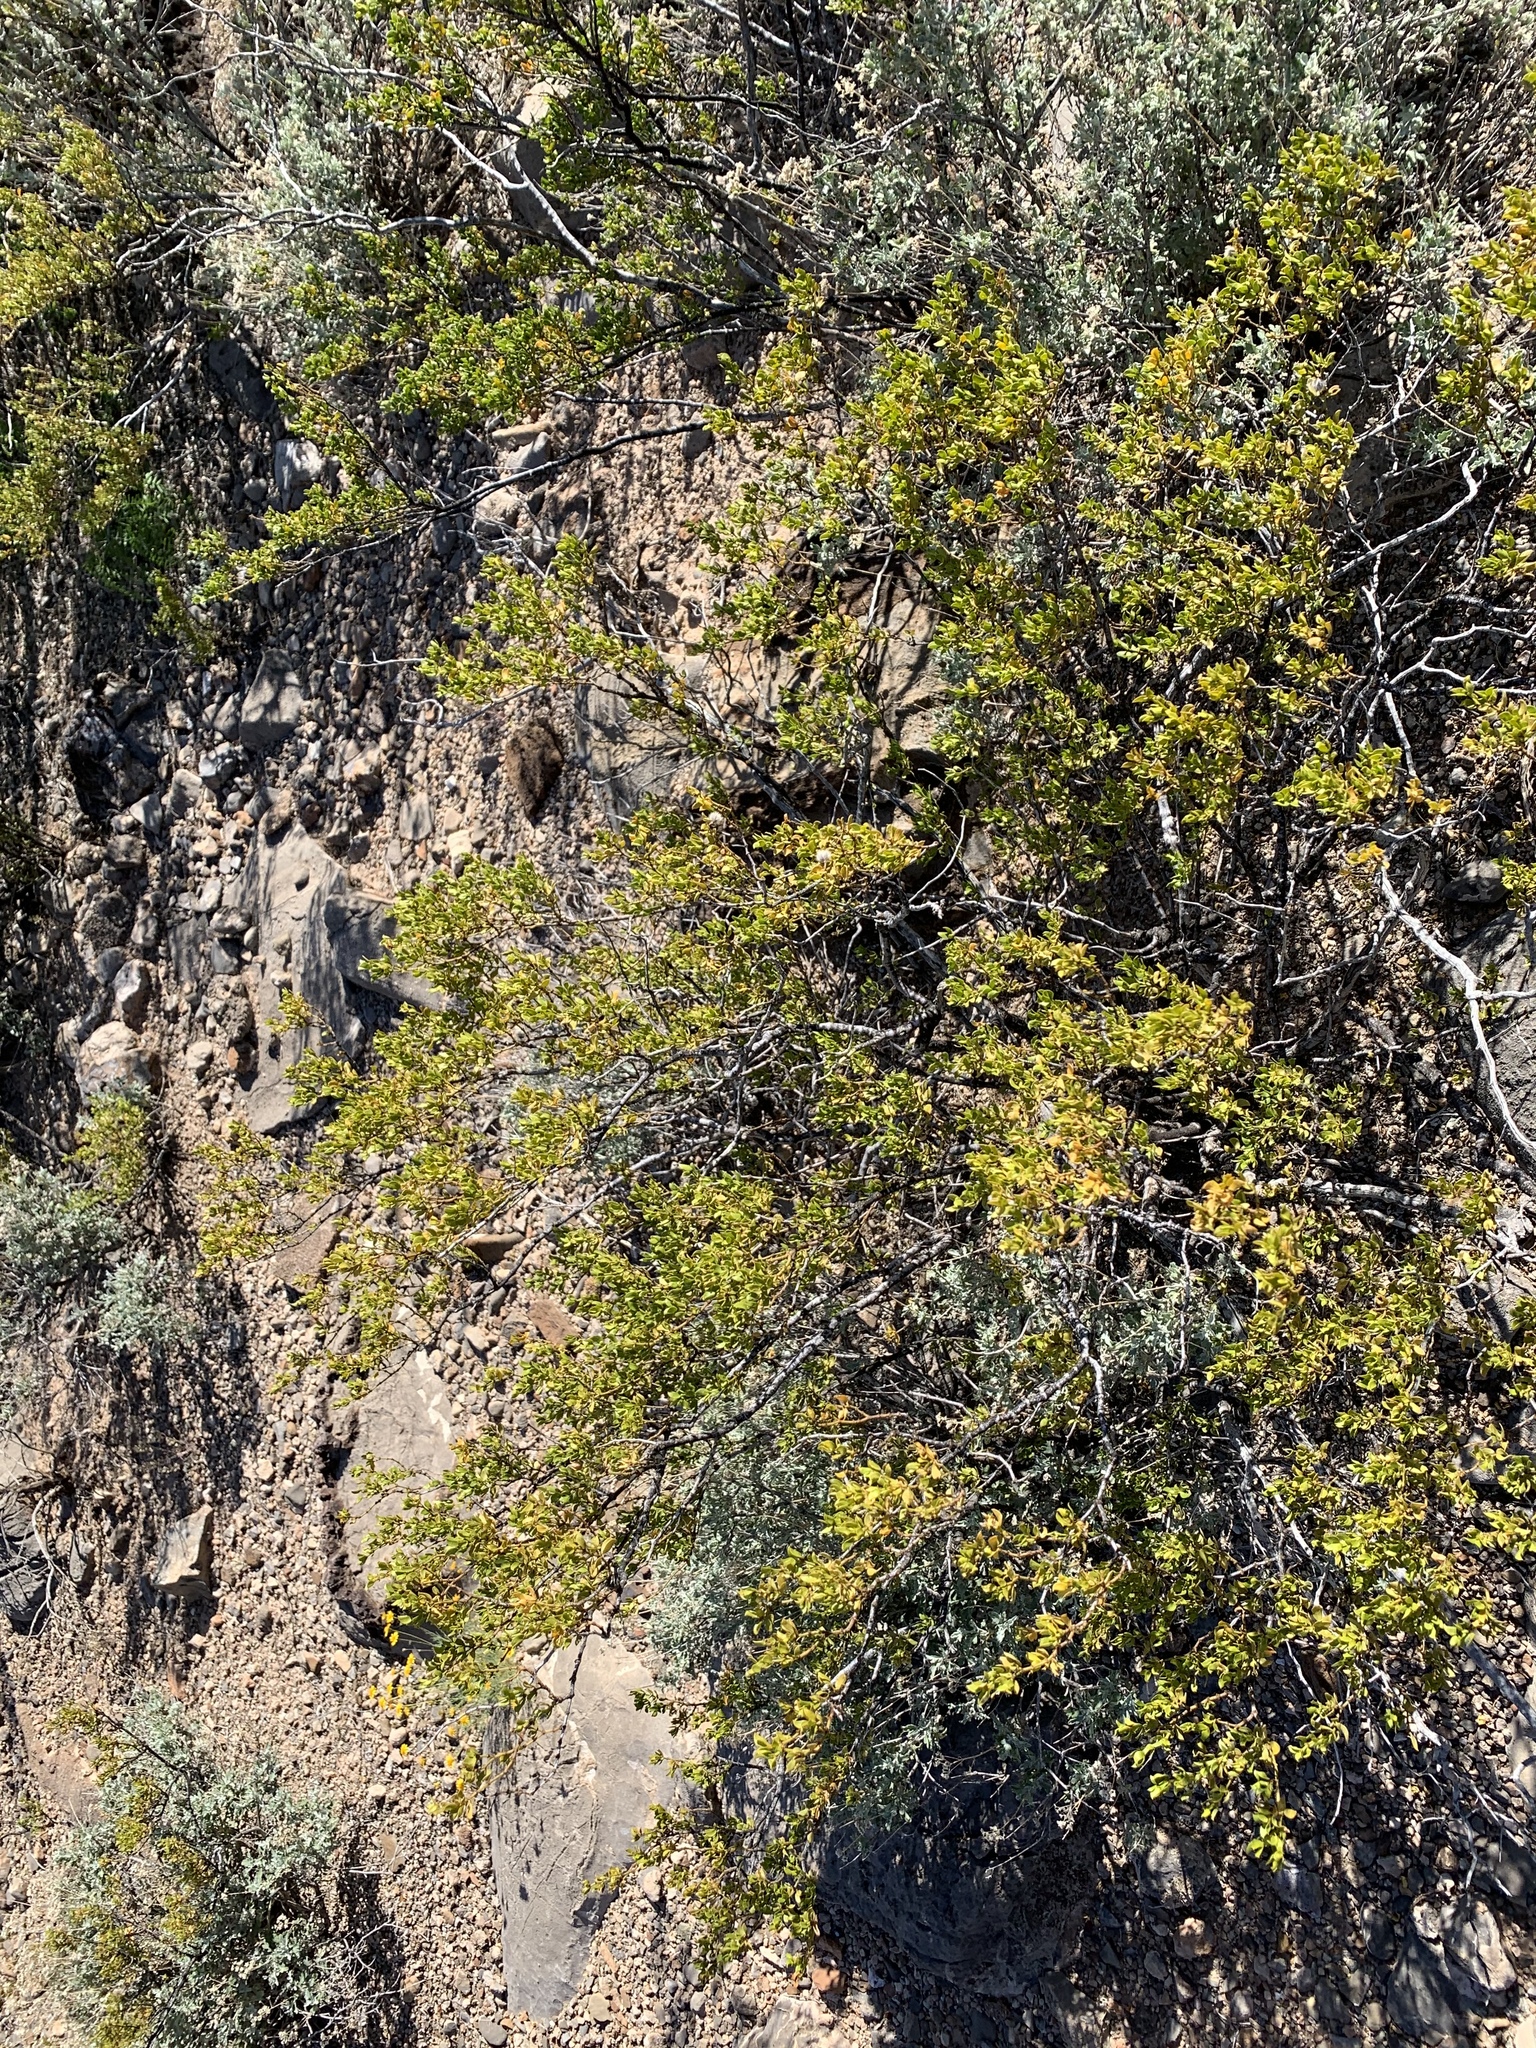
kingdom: Plantae
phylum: Tracheophyta
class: Magnoliopsida
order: Zygophyllales
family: Zygophyllaceae
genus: Larrea
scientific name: Larrea tridentata
